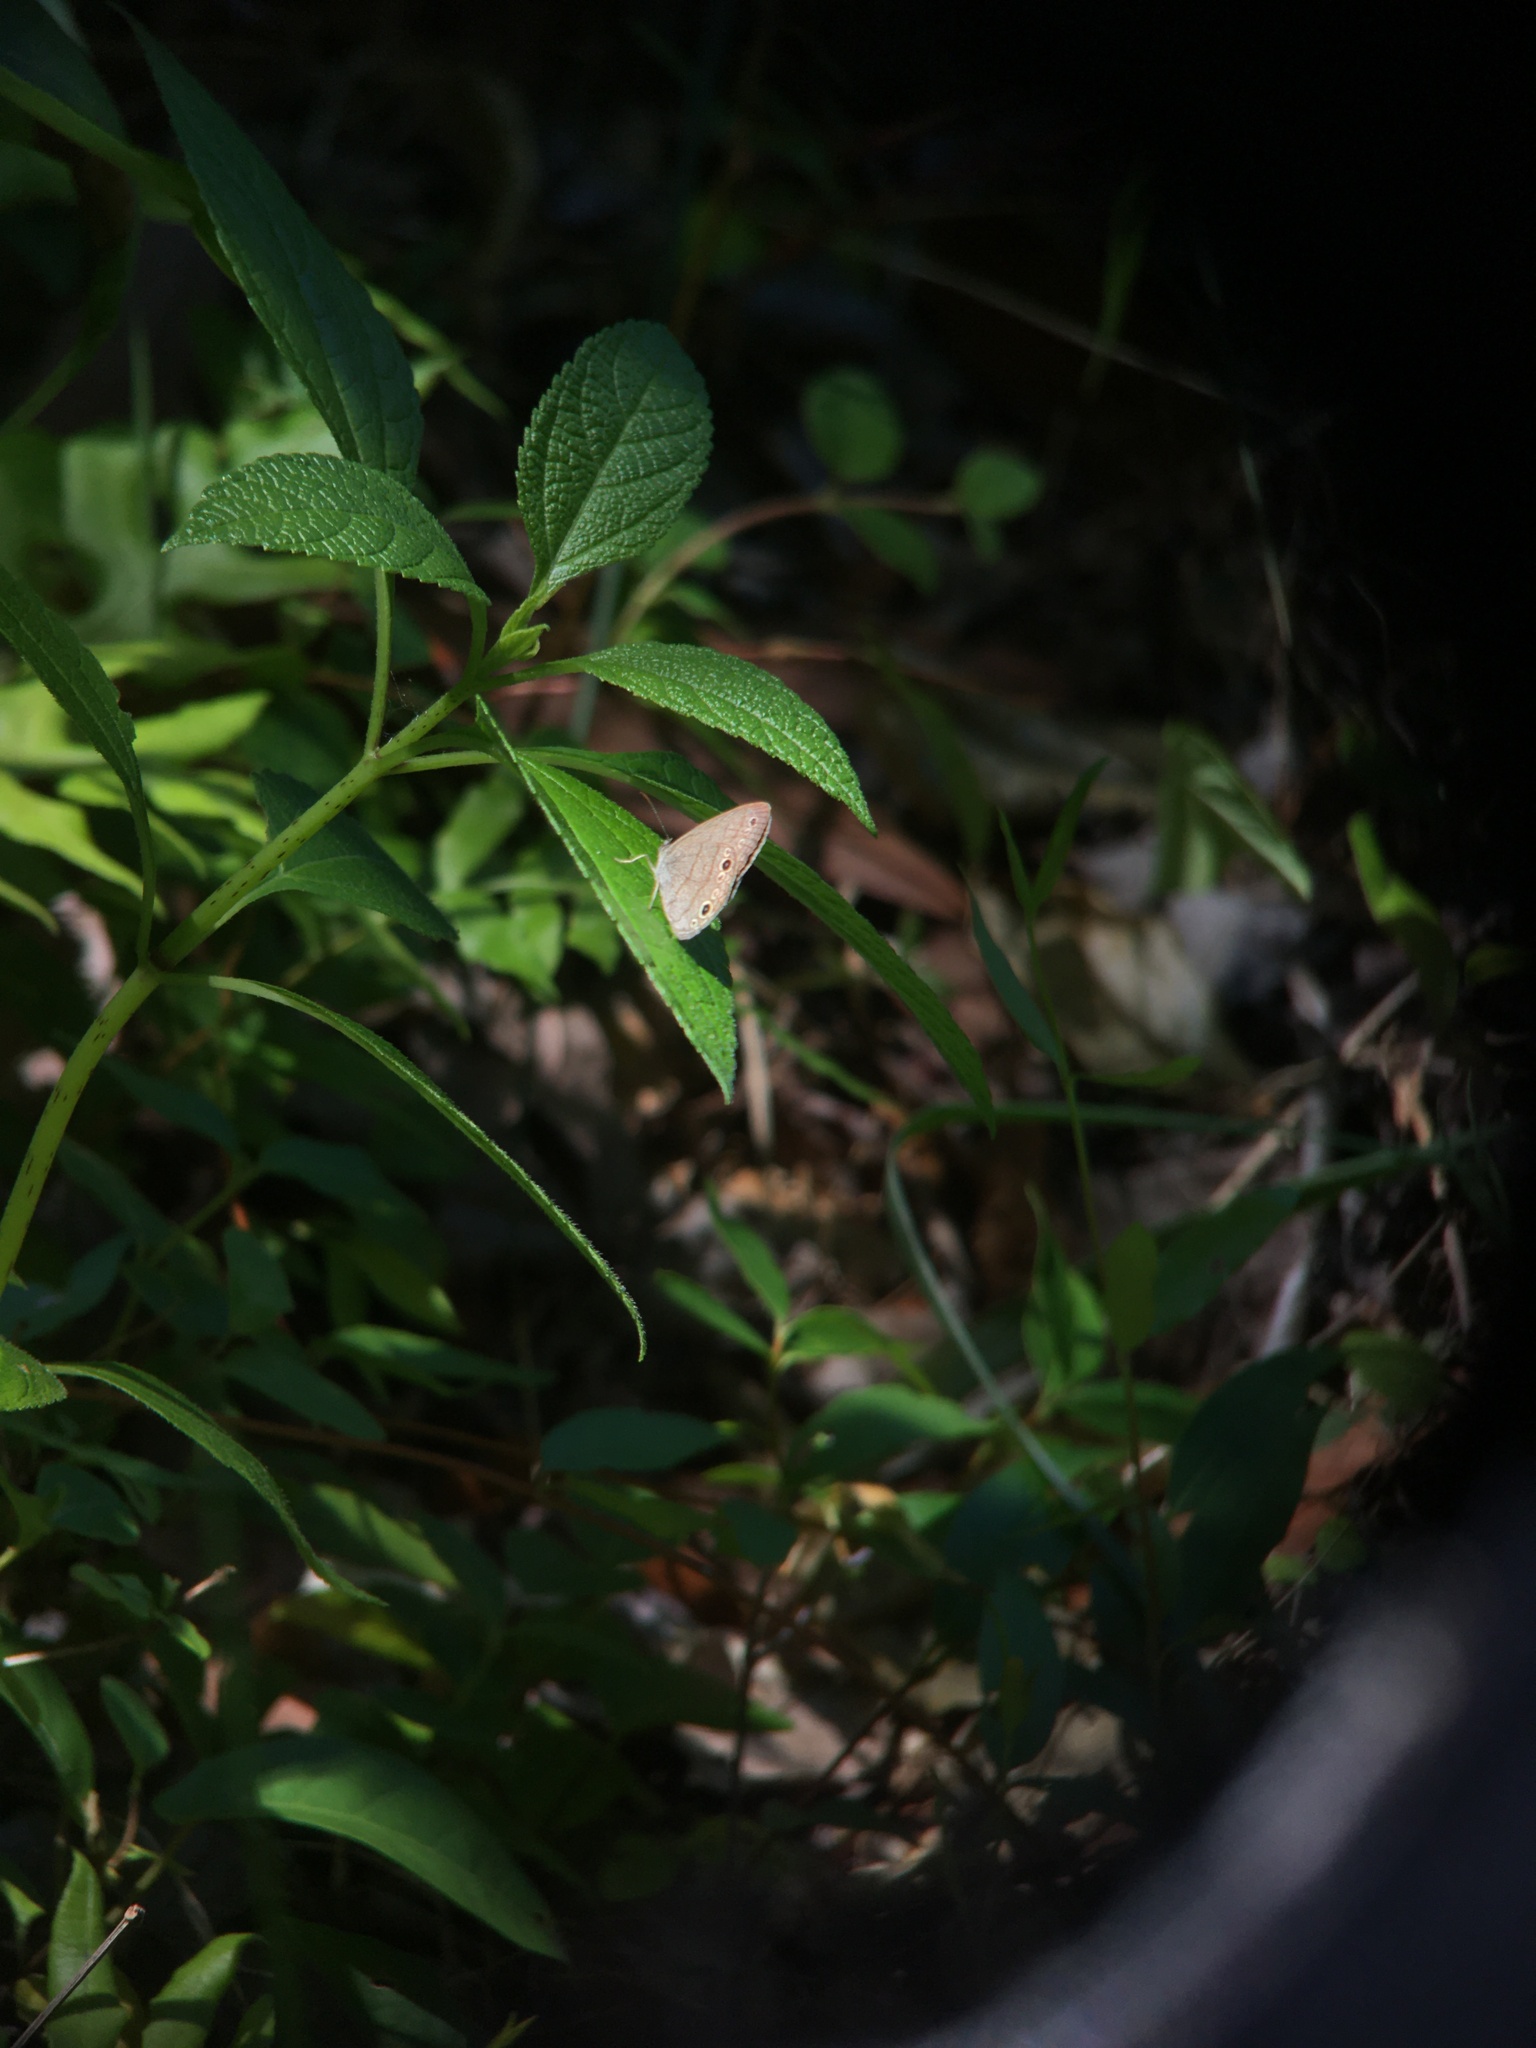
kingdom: Animalia
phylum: Arthropoda
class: Insecta
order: Lepidoptera
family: Nymphalidae
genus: Hermeuptychia
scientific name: Hermeuptychia hermes
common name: Hermes satyr
